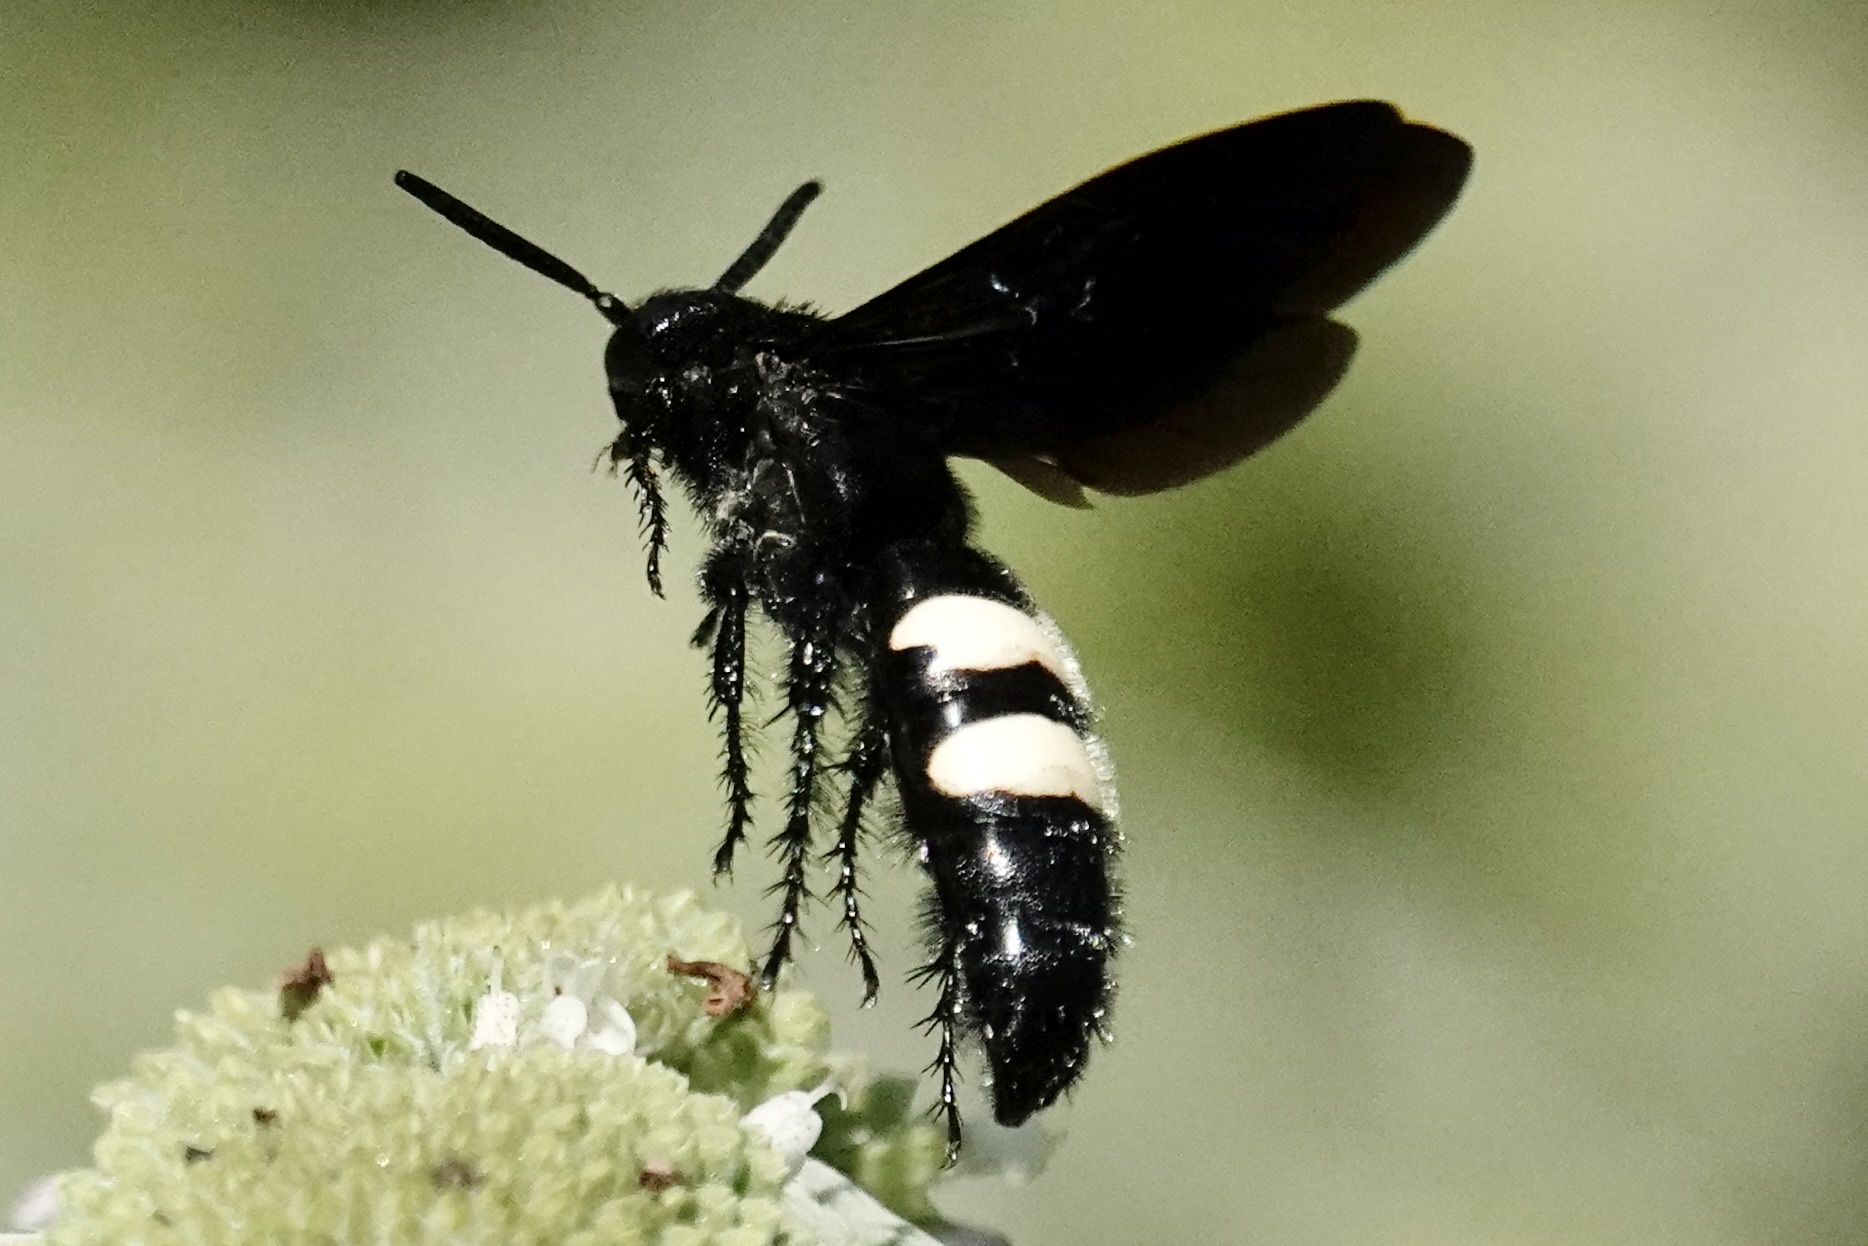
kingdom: Animalia
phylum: Arthropoda
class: Insecta
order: Hymenoptera
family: Scoliidae
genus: Scolia
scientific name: Scolia bicincta
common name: Double-banded scoliid wasp
